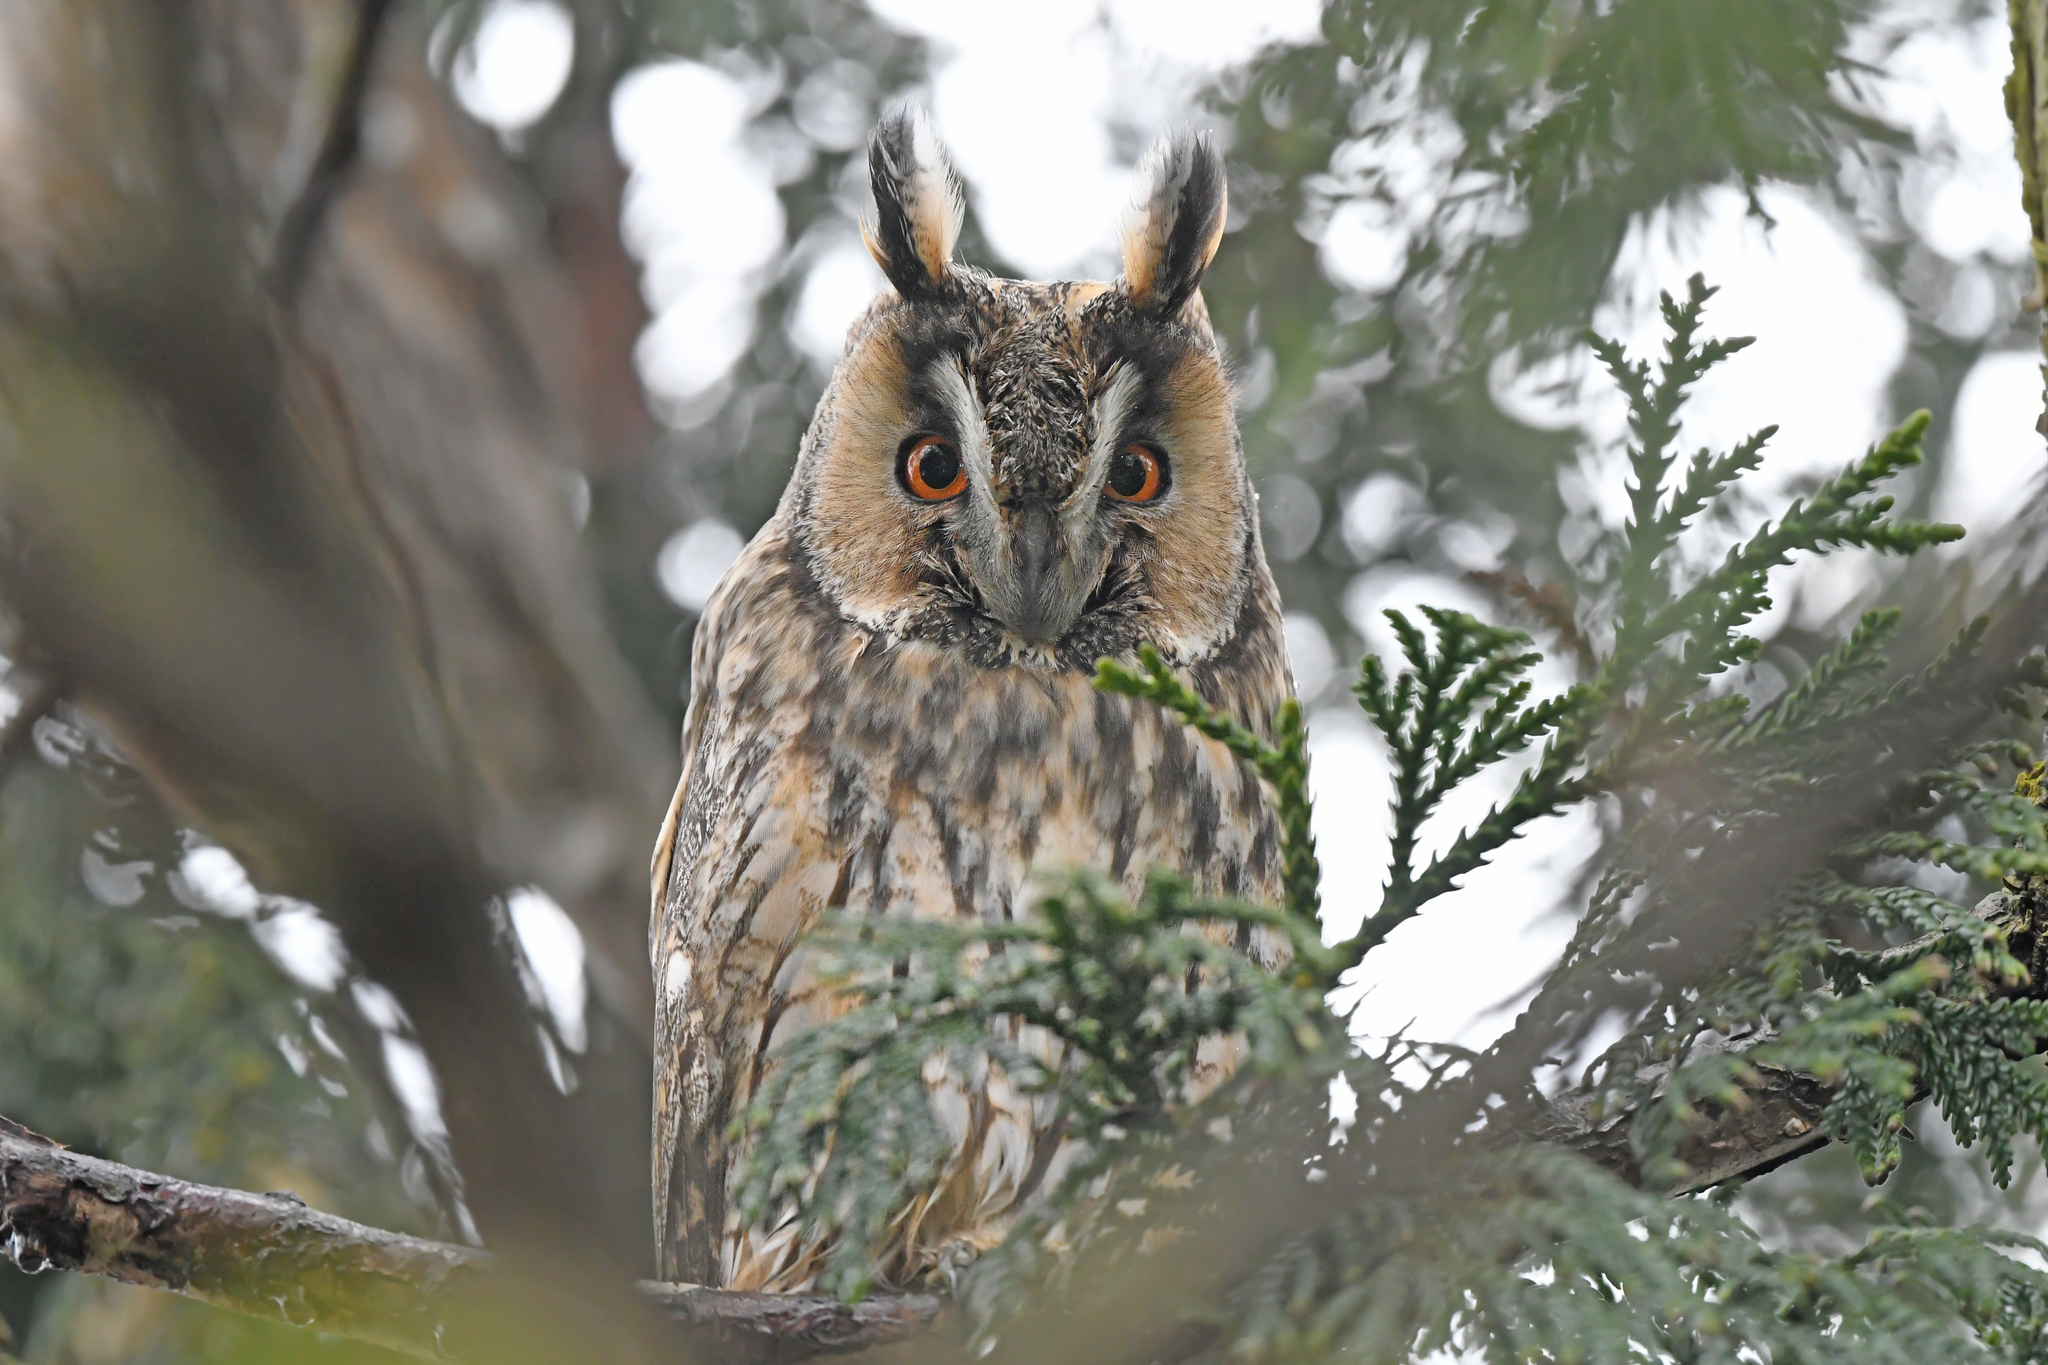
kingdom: Animalia
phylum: Chordata
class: Aves
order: Strigiformes
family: Strigidae
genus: Asio
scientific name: Asio otus
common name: Long-eared owl
